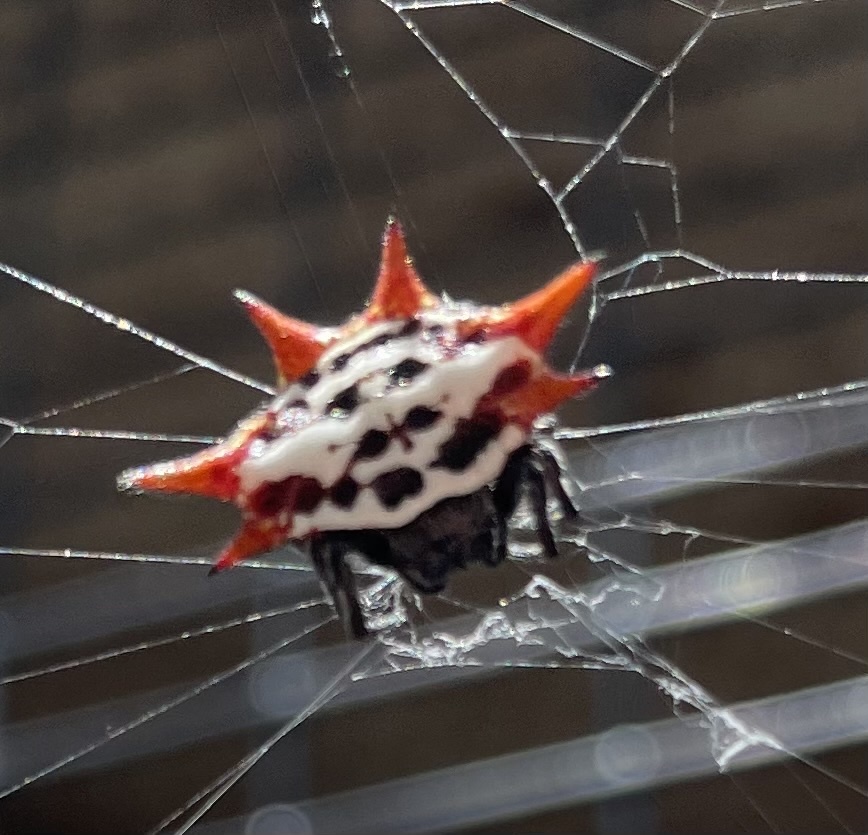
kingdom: Animalia
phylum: Arthropoda
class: Arachnida
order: Araneae
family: Araneidae
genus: Gasteracantha
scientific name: Gasteracantha cancriformis
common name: Orb weavers
